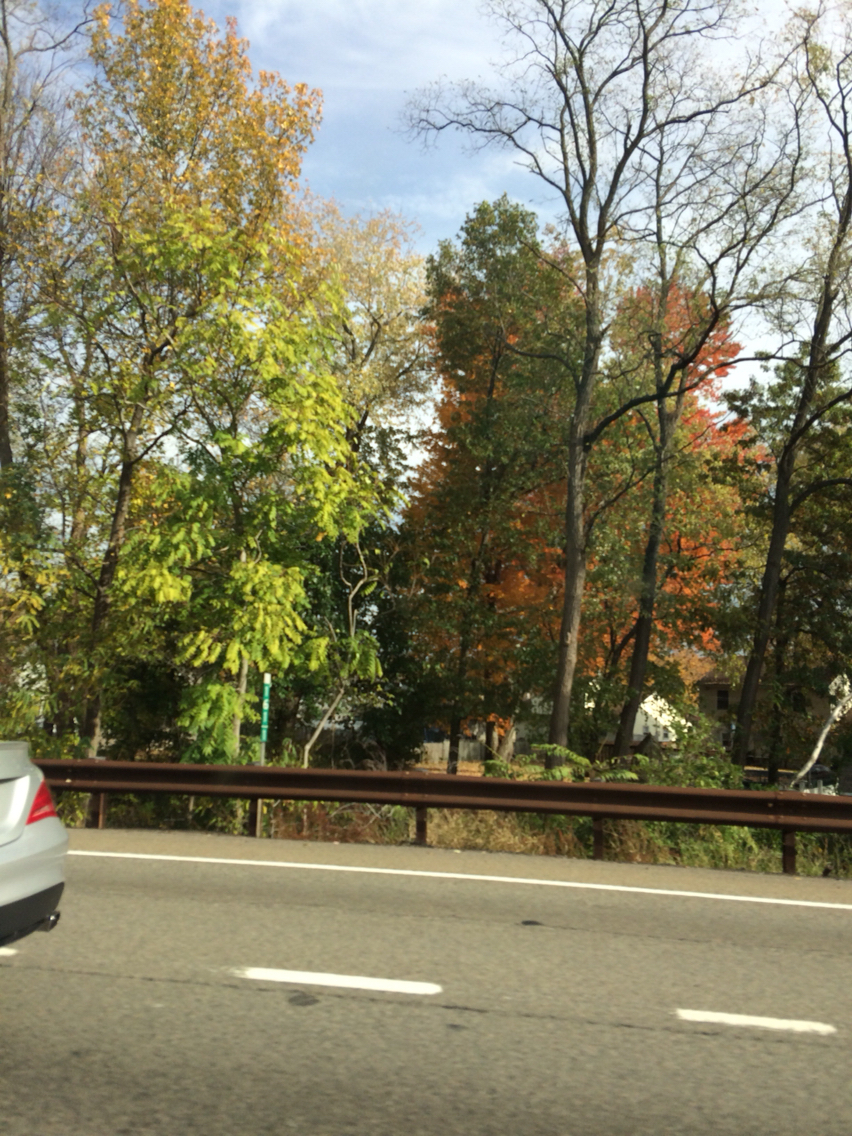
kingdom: Plantae
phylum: Tracheophyta
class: Magnoliopsida
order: Sapindales
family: Simaroubaceae
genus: Ailanthus
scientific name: Ailanthus altissima
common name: Tree-of-heaven
